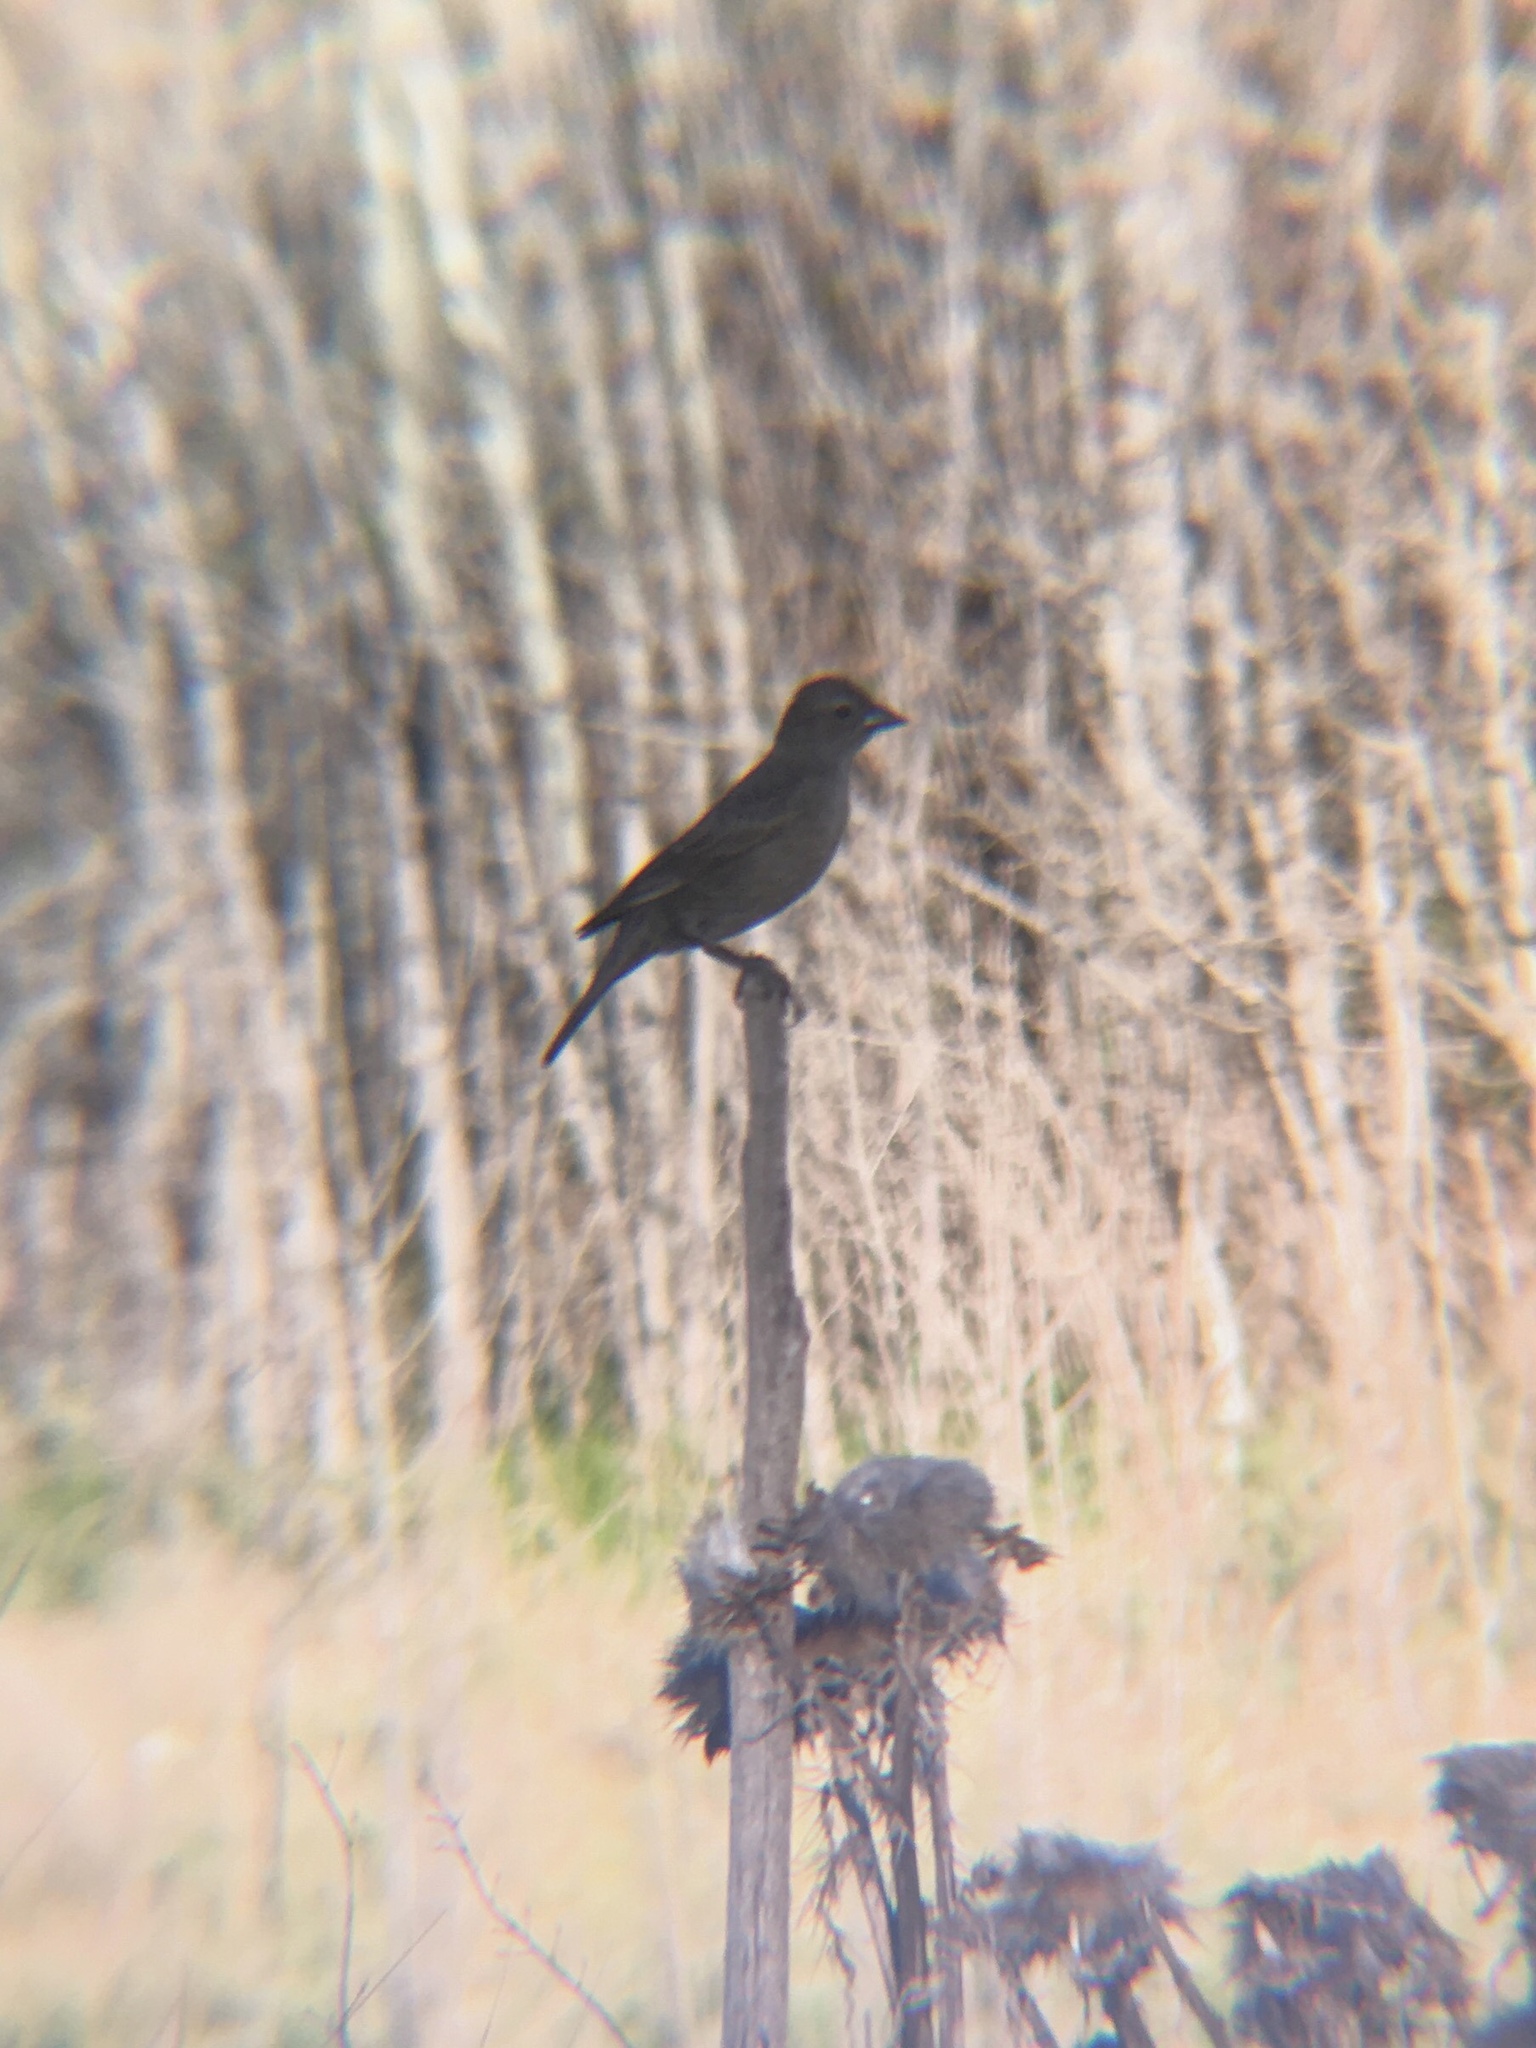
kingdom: Animalia
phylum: Chordata
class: Aves
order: Passeriformes
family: Icteridae
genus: Molothrus
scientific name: Molothrus bonariensis
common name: Shiny cowbird
